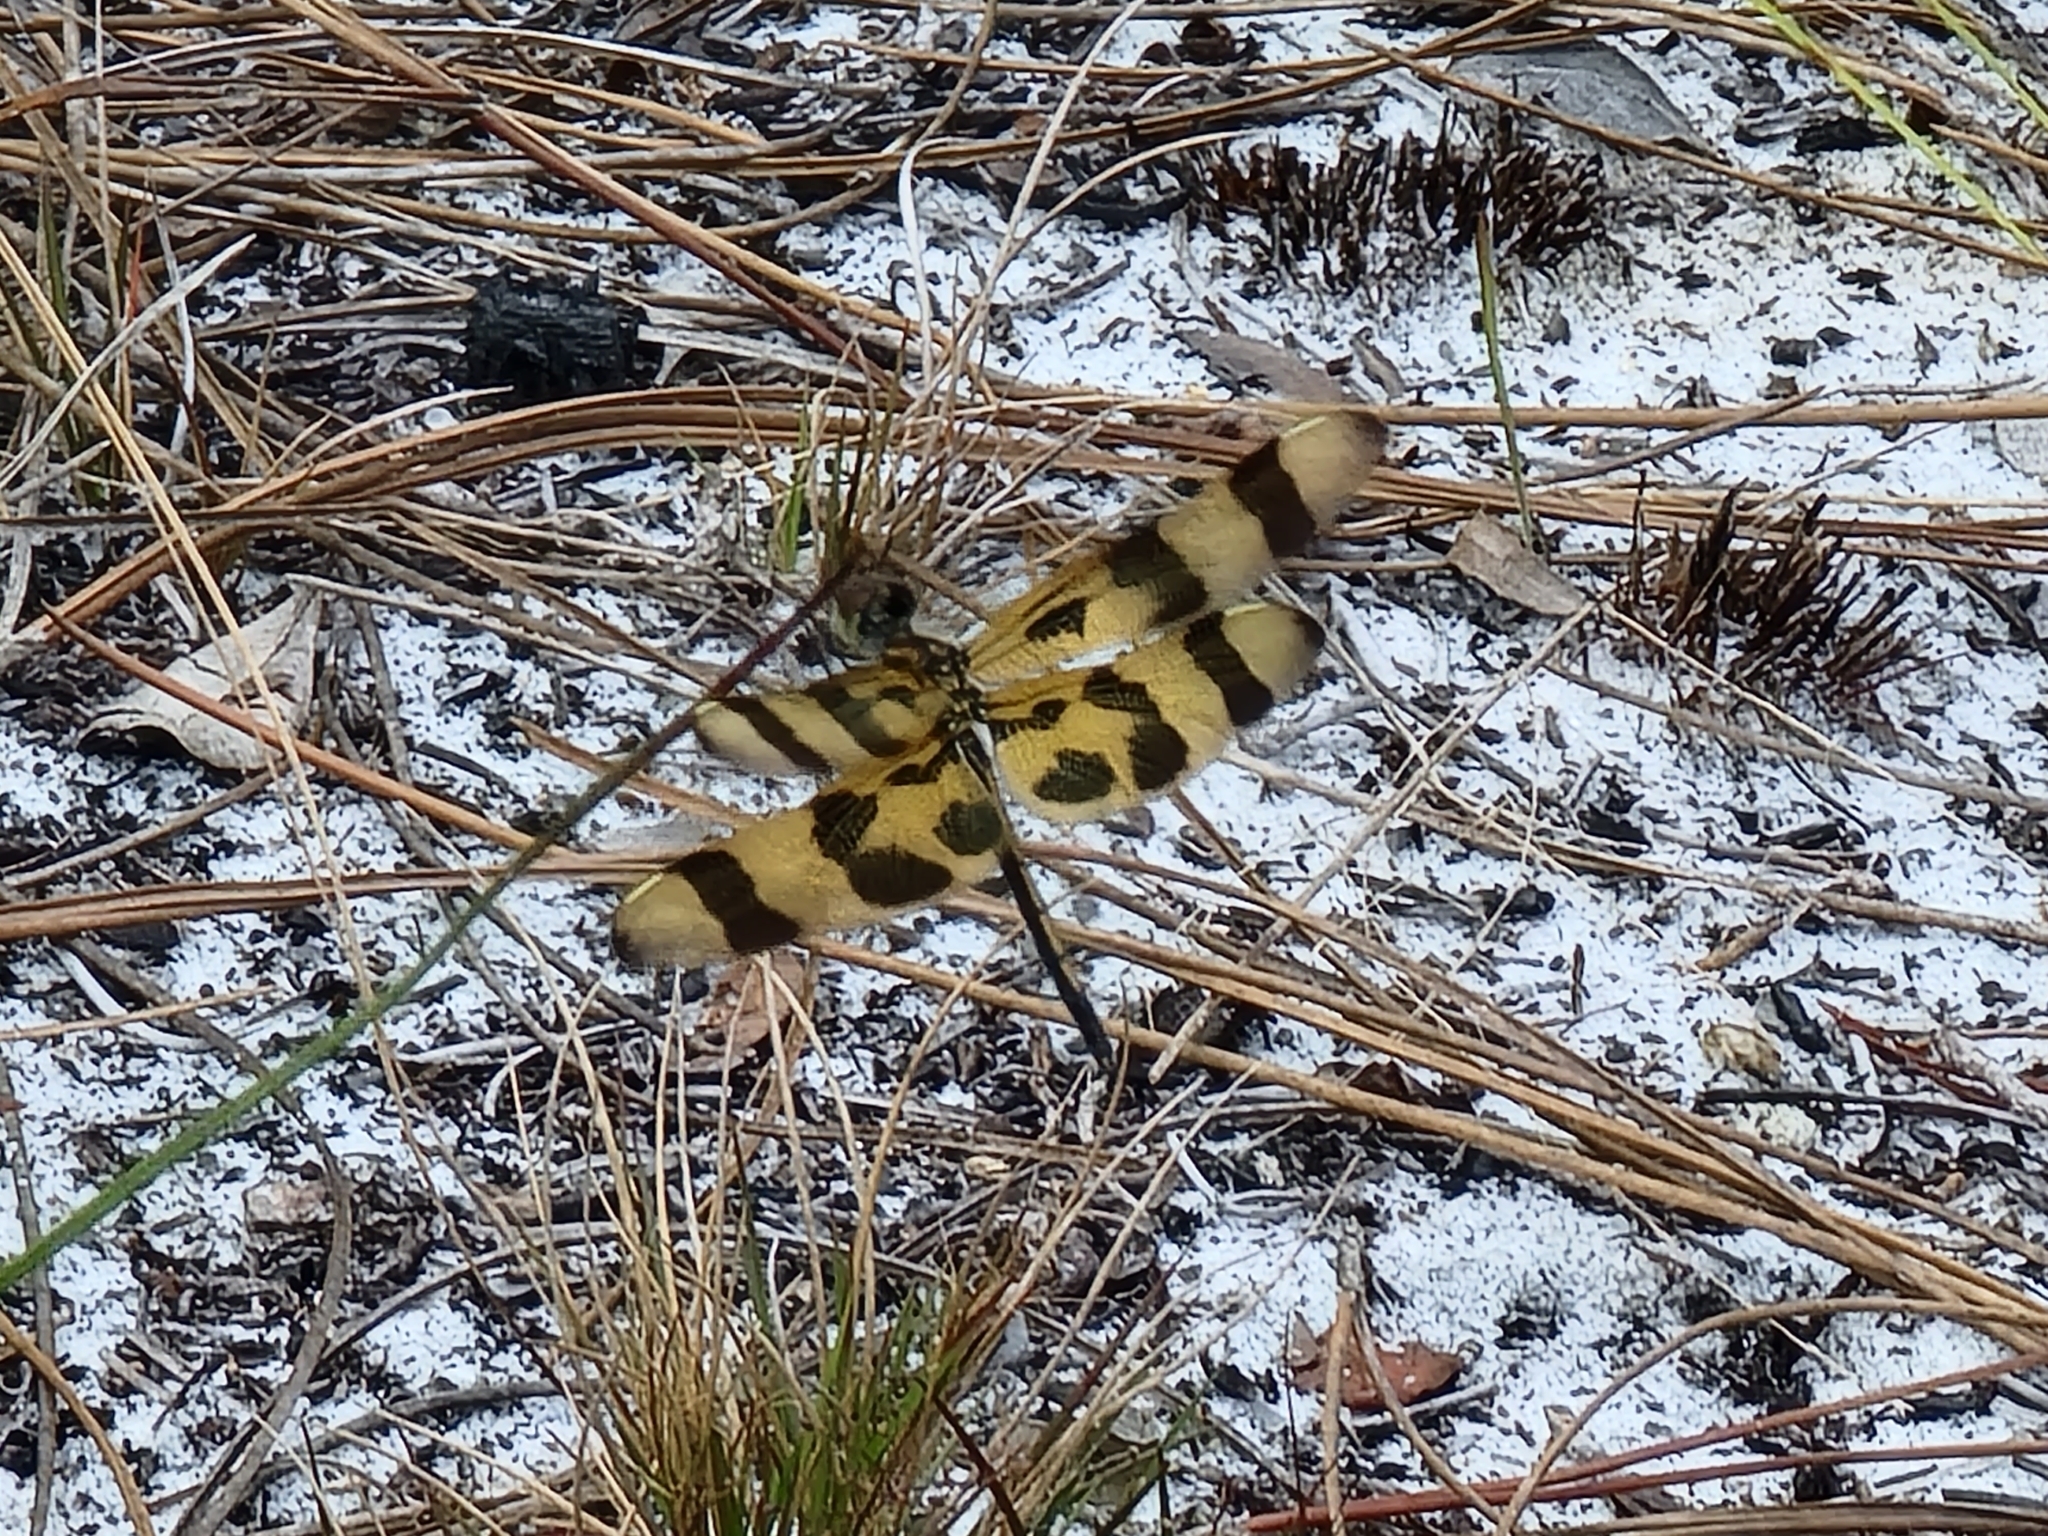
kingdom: Animalia
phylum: Arthropoda
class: Insecta
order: Odonata
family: Libellulidae
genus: Celithemis
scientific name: Celithemis eponina
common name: Halloween pennant
